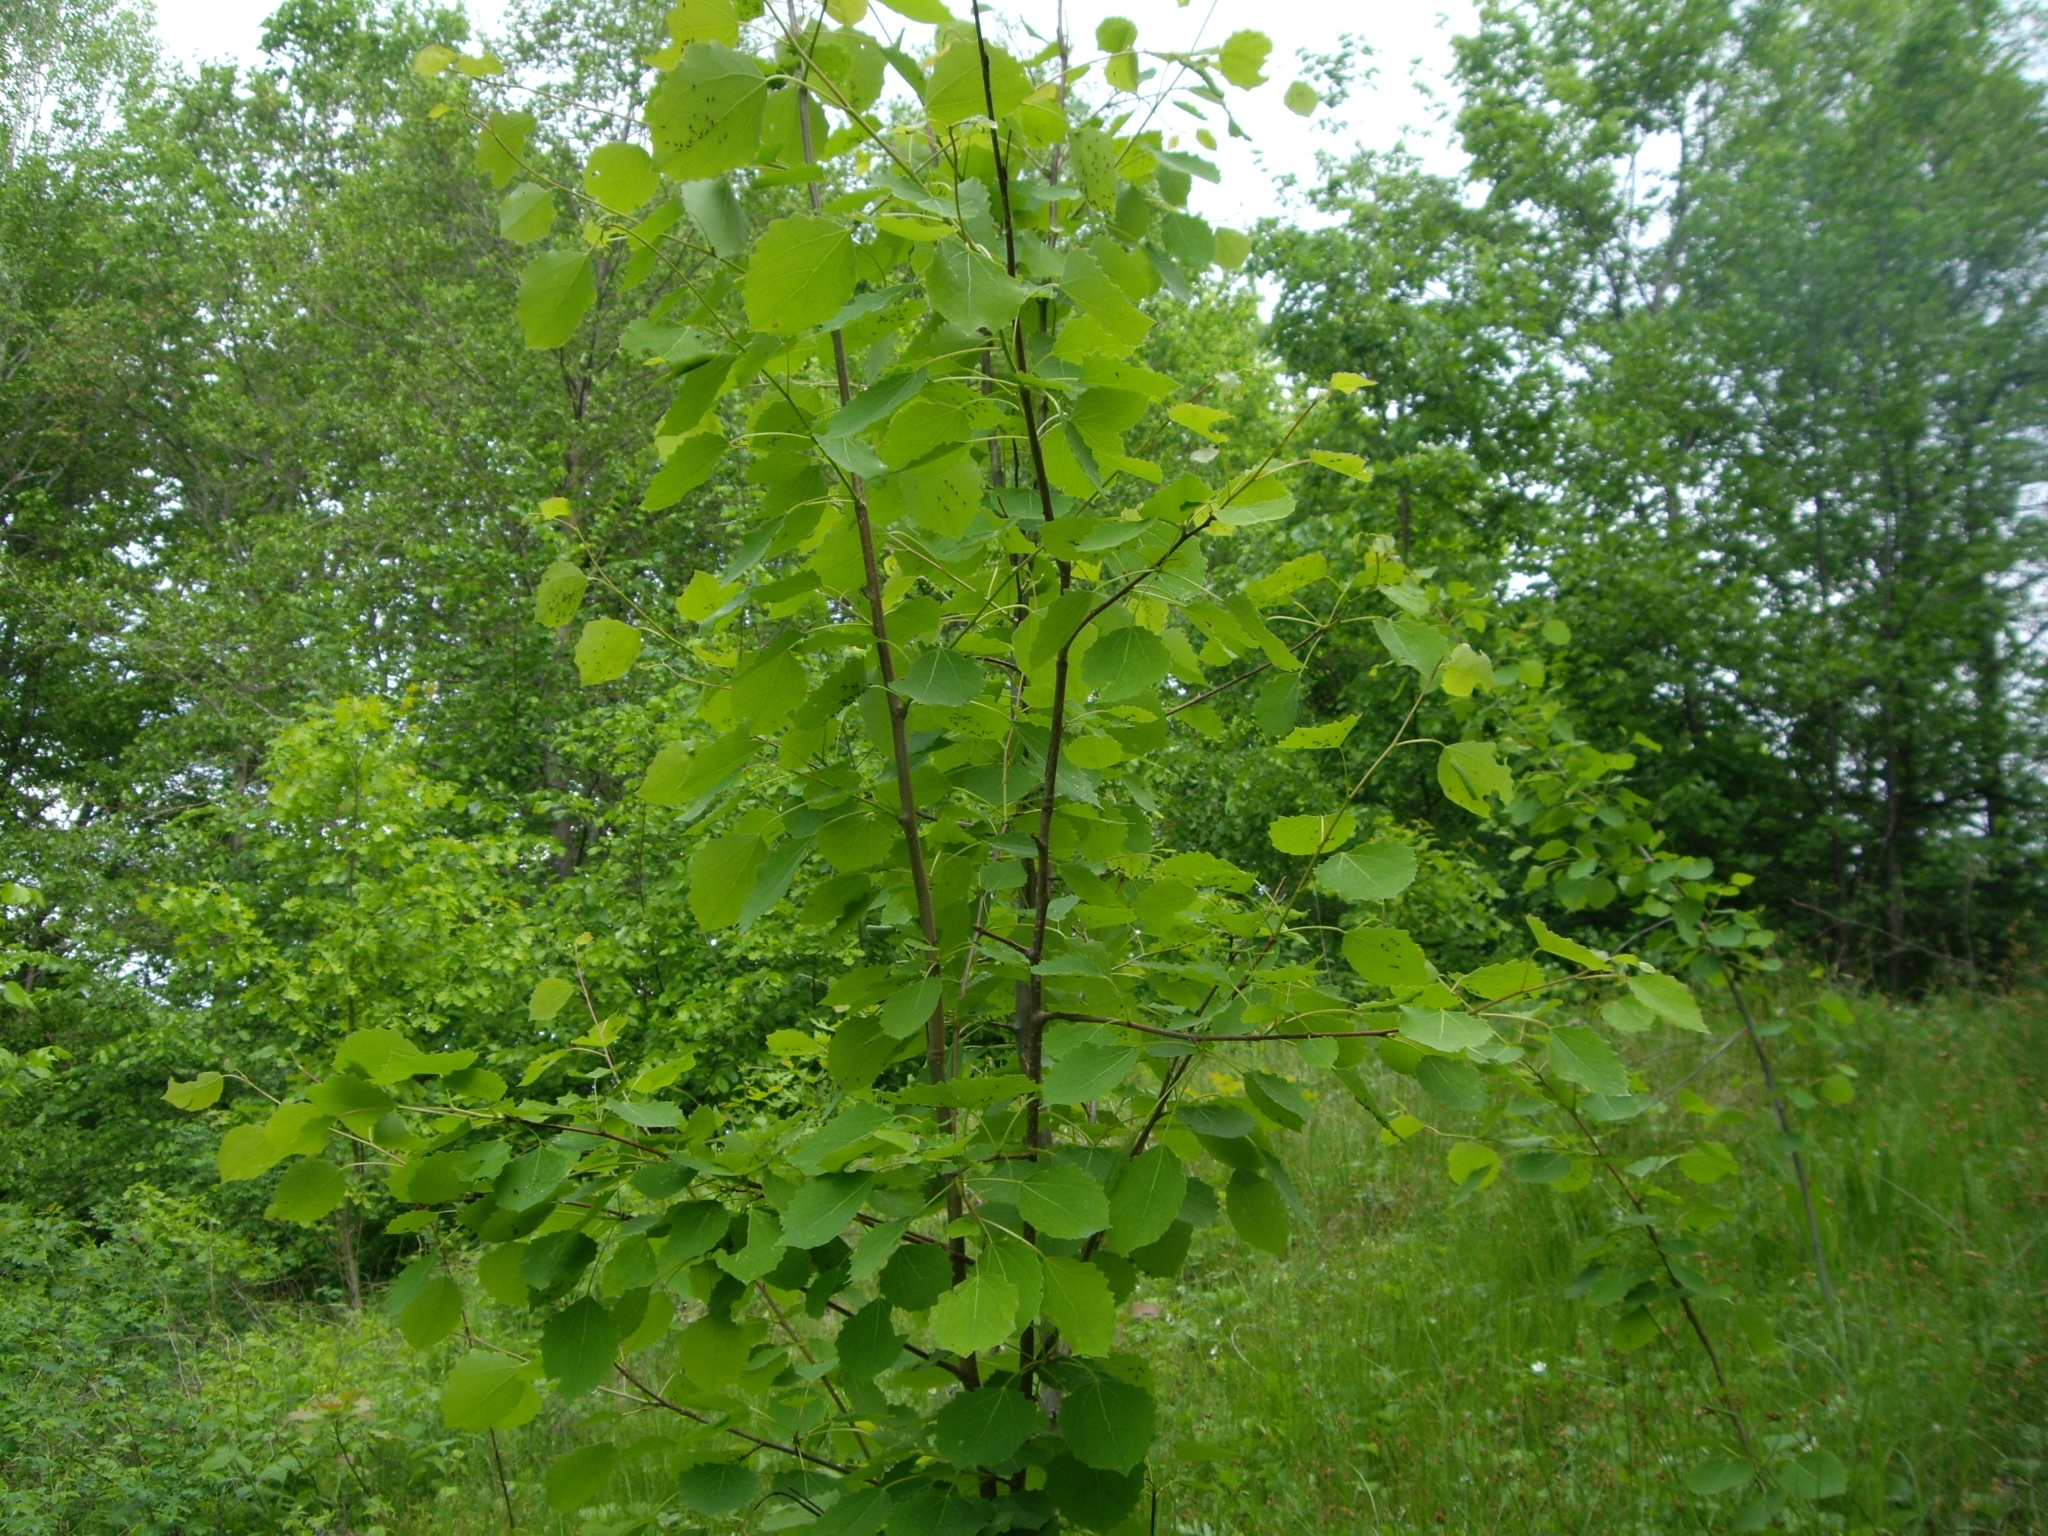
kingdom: Plantae
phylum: Tracheophyta
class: Magnoliopsida
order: Malpighiales
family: Salicaceae
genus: Populus
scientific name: Populus tremula
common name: European aspen
